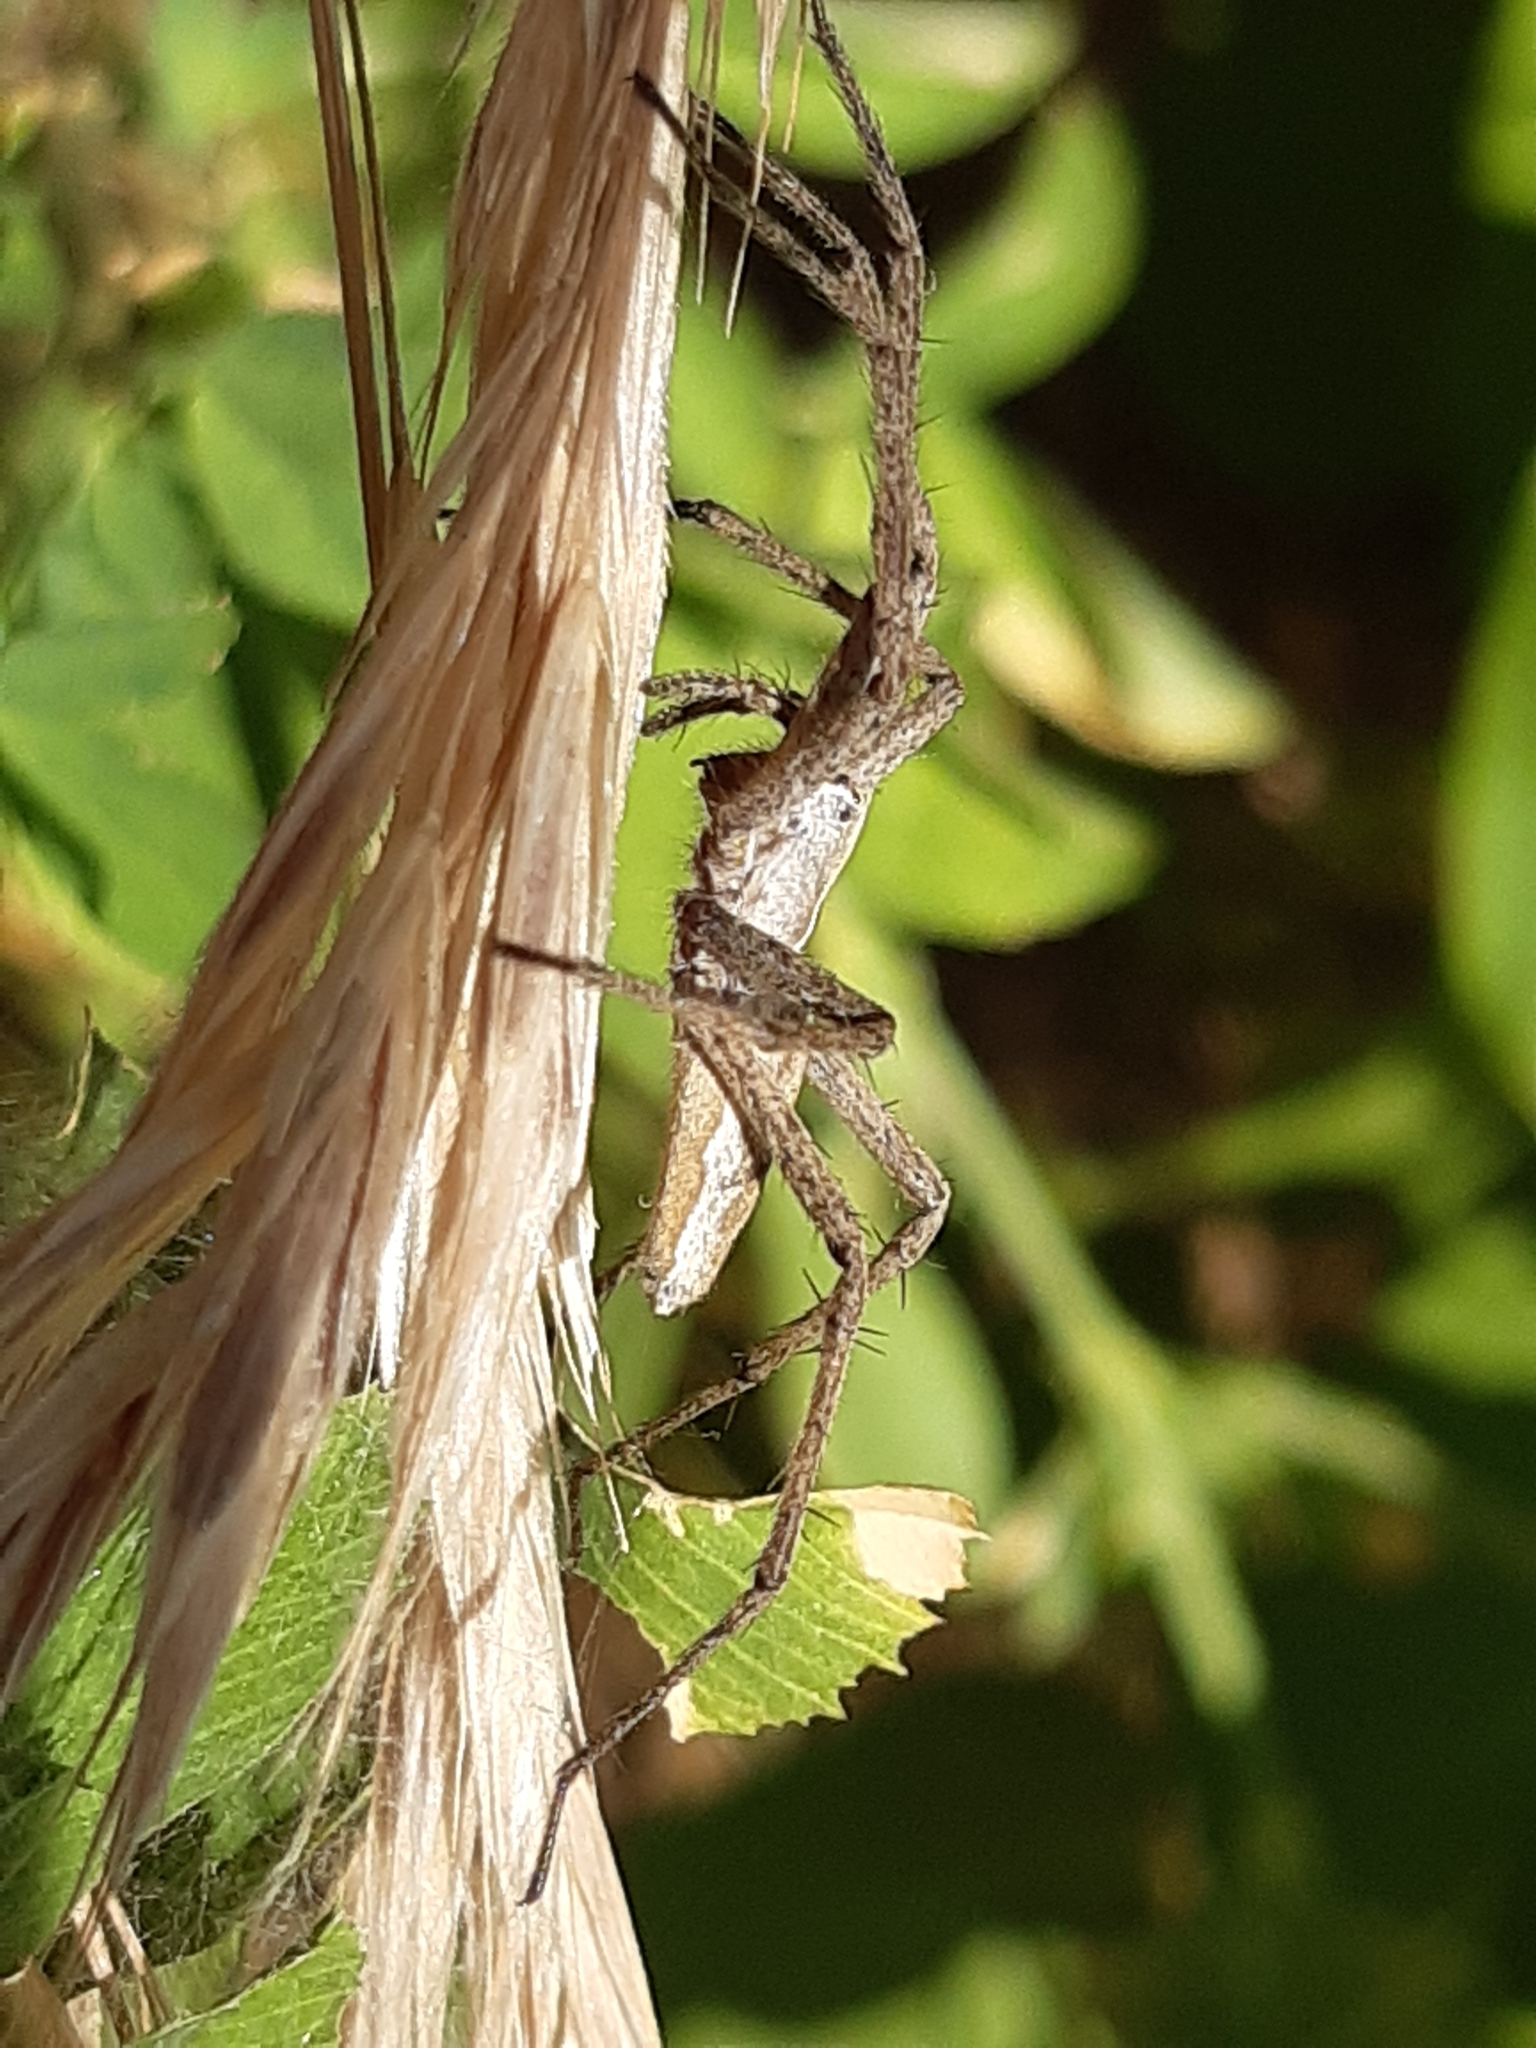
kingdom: Animalia
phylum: Arthropoda
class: Arachnida
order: Araneae
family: Pisauridae
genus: Pisaura
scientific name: Pisaura mirabilis
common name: Tent spider
